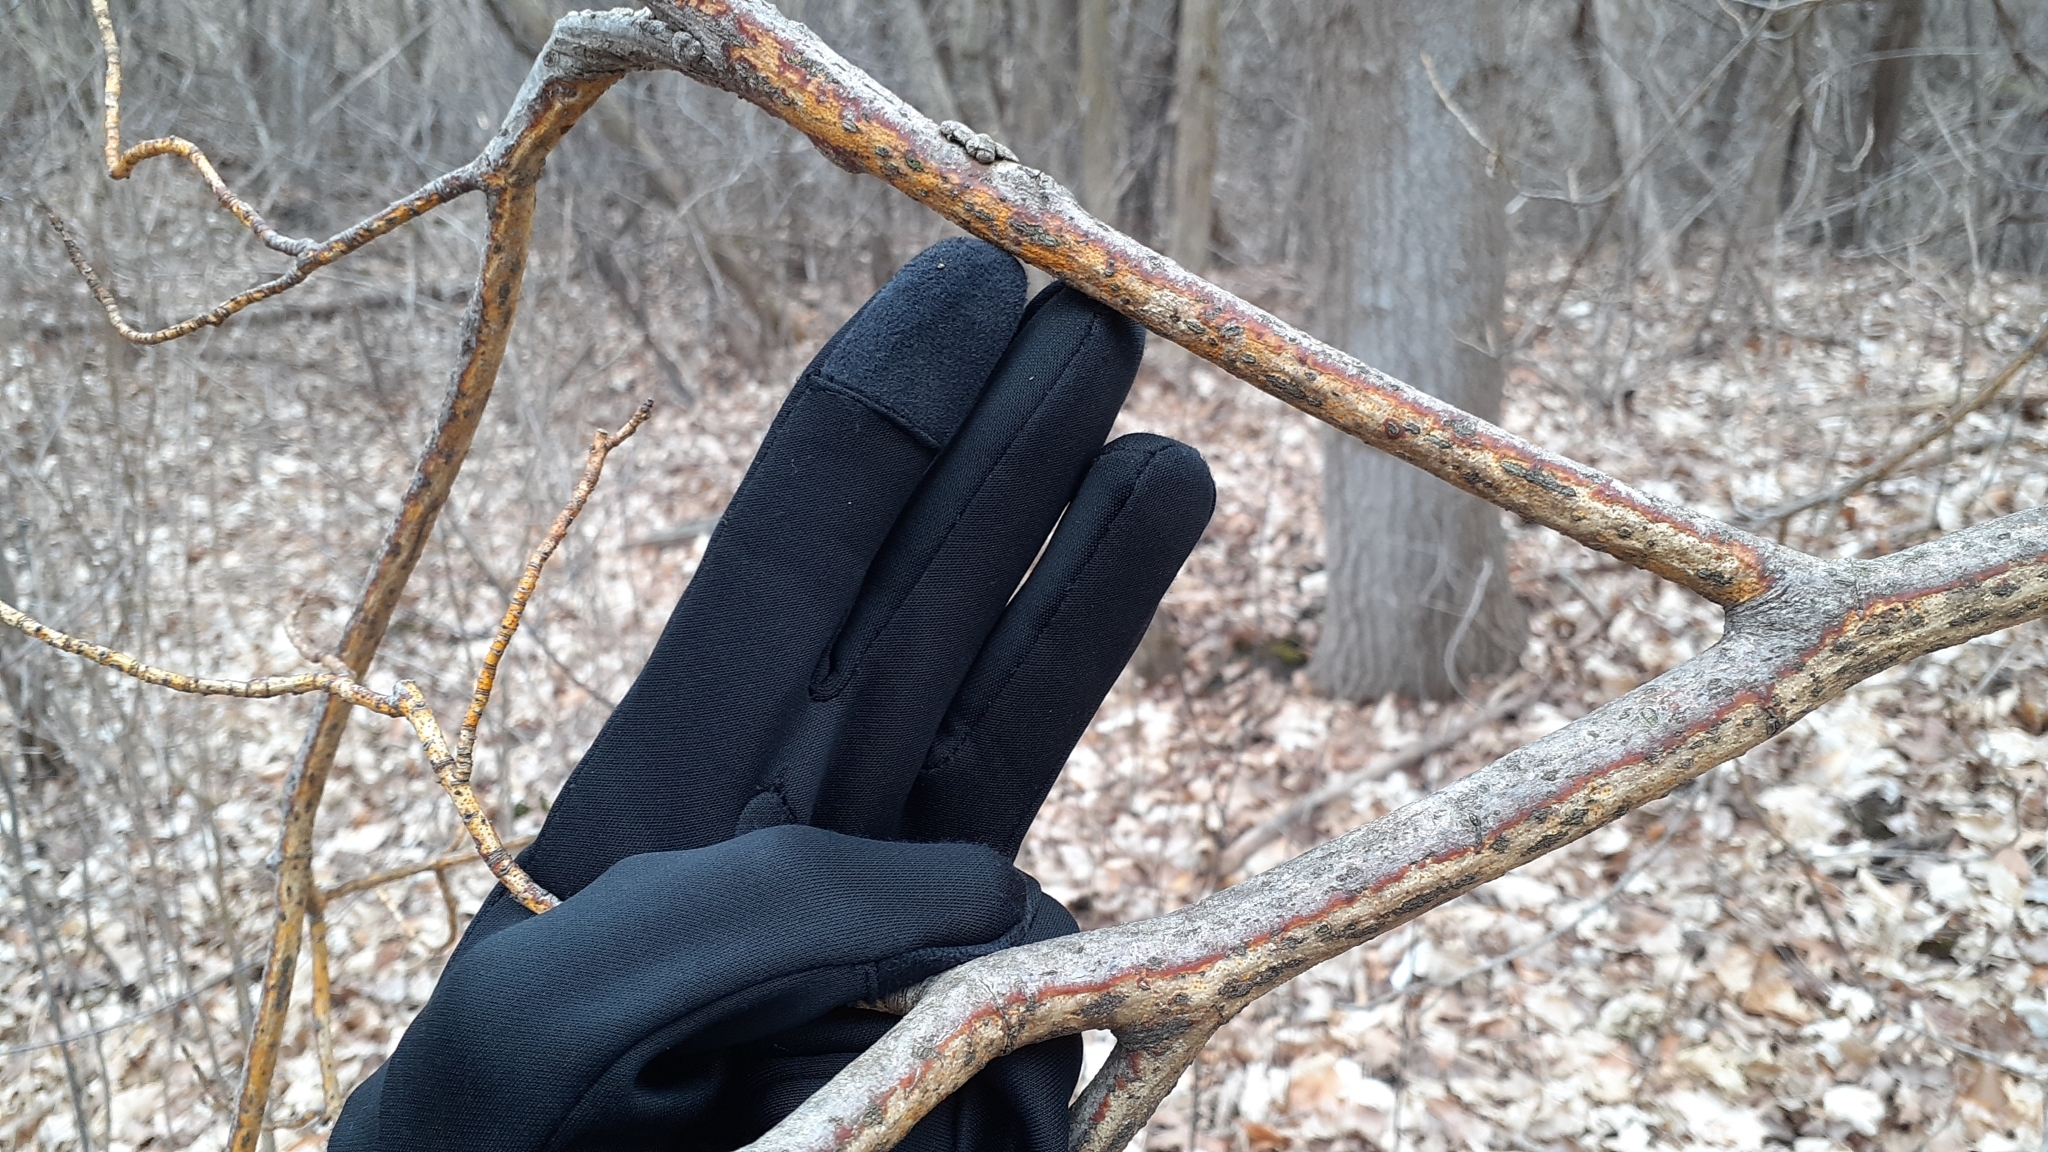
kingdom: Fungi
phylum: Ascomycota
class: Sordariomycetes
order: Diaporthales
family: Cryphonectriaceae
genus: Aurantioporthe
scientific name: Aurantioporthe corni
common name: Dogwood golden canker
